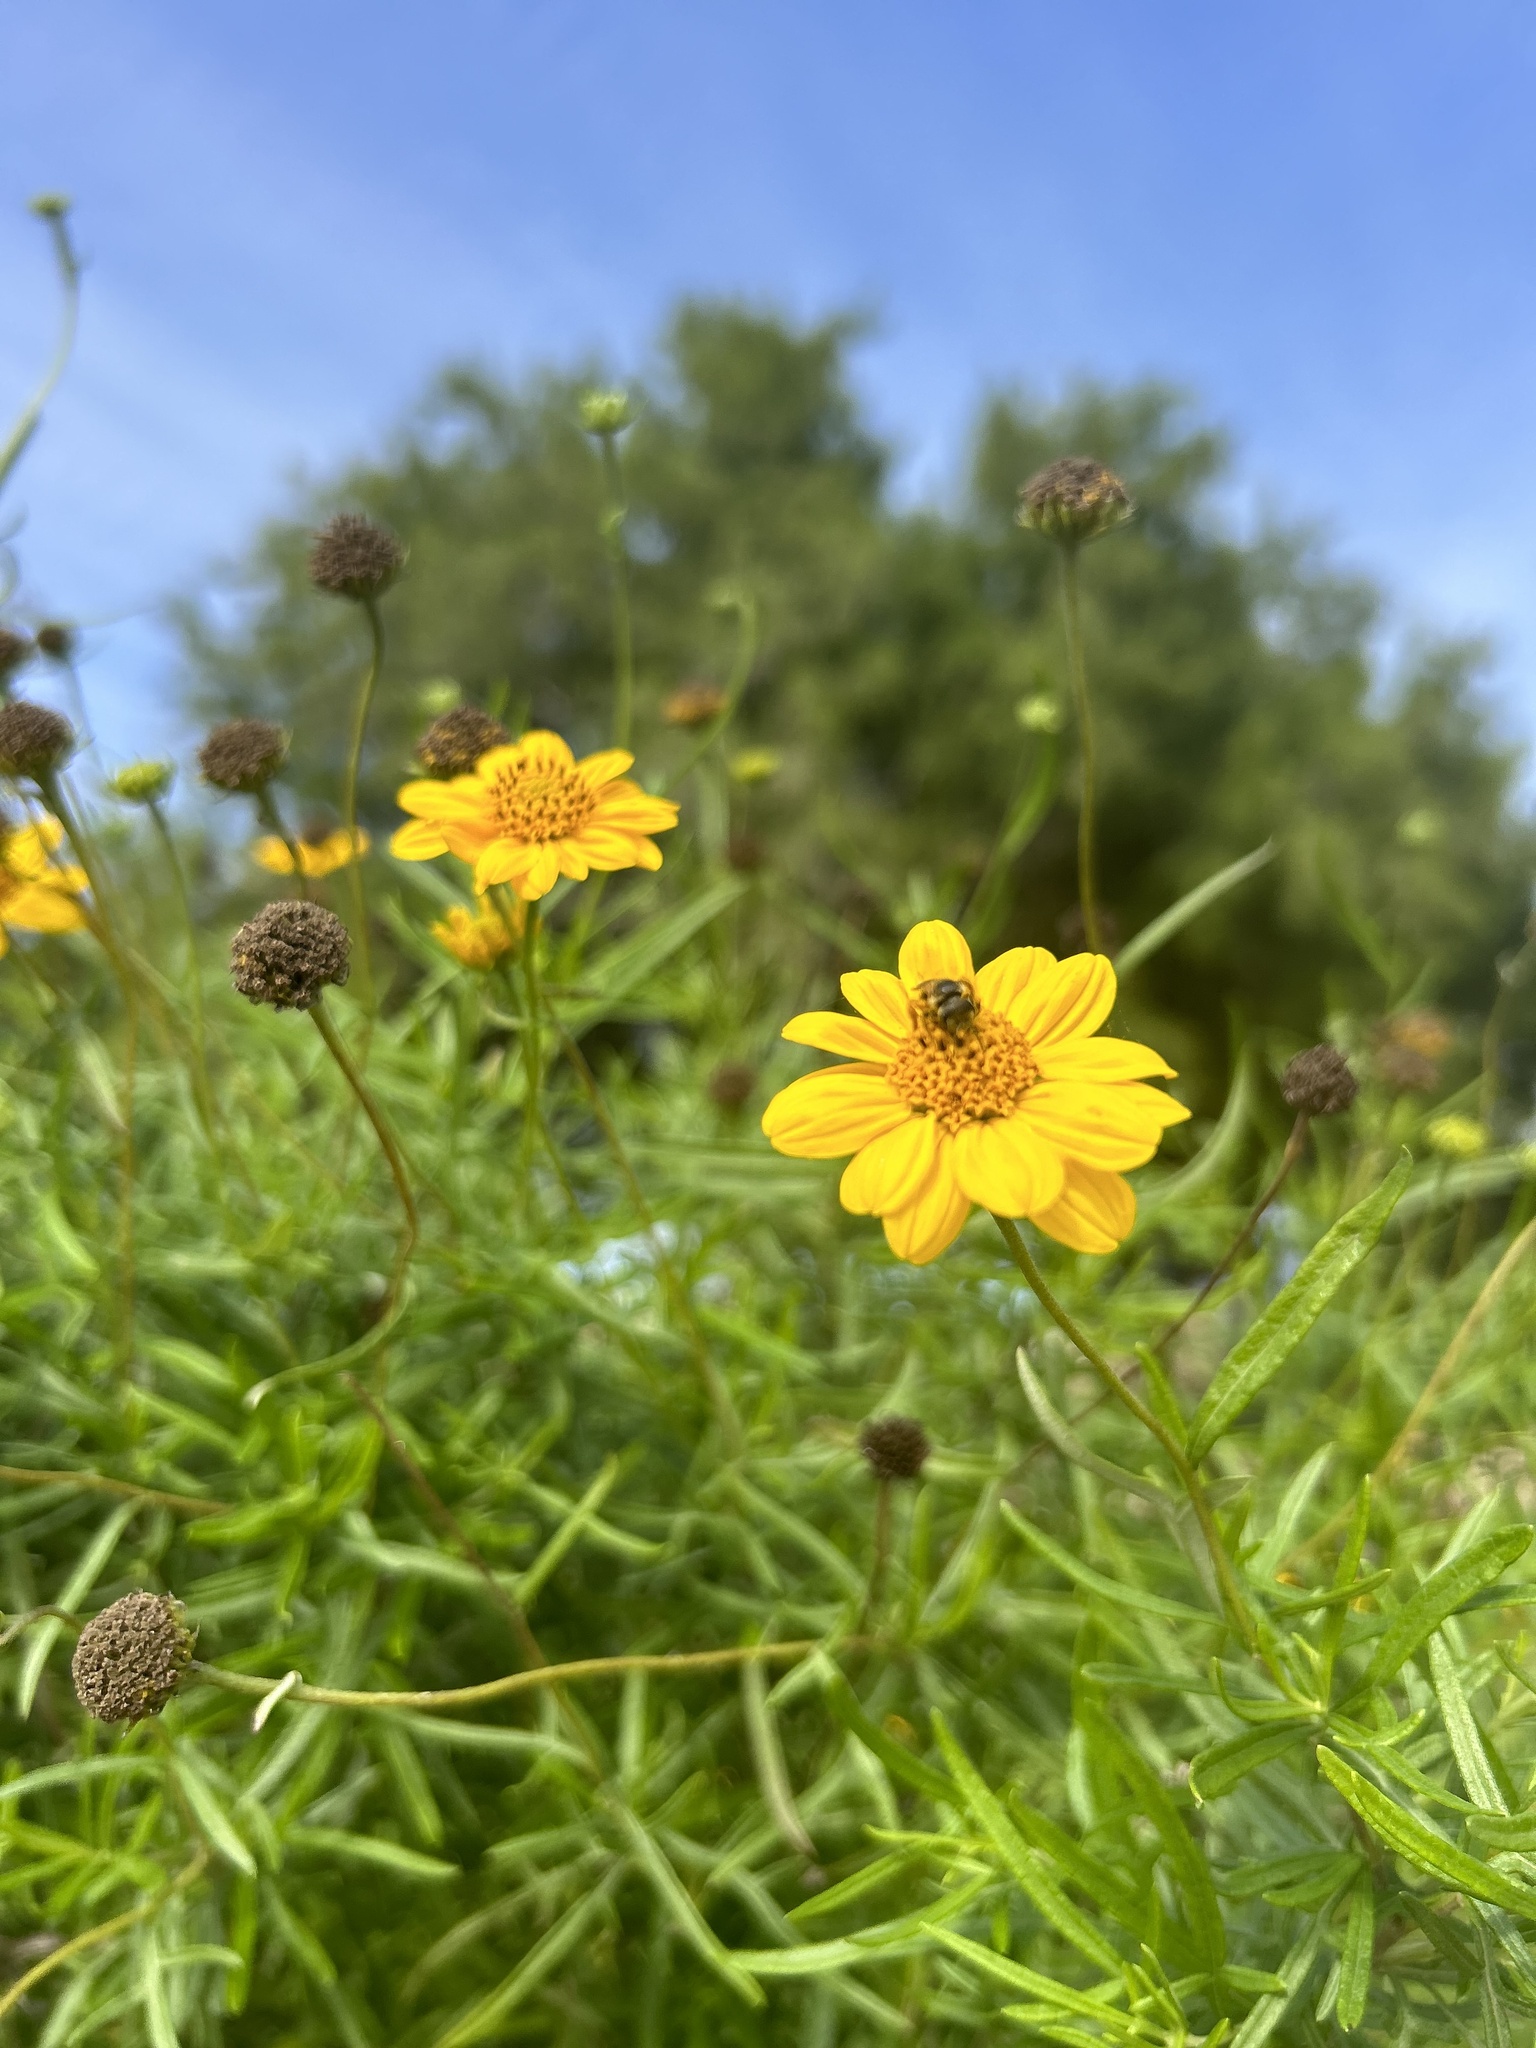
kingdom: Animalia
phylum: Arthropoda
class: Insecta
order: Hymenoptera
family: Halictidae
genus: Halictus
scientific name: Halictus ligatus
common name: Ligated furrow bee
